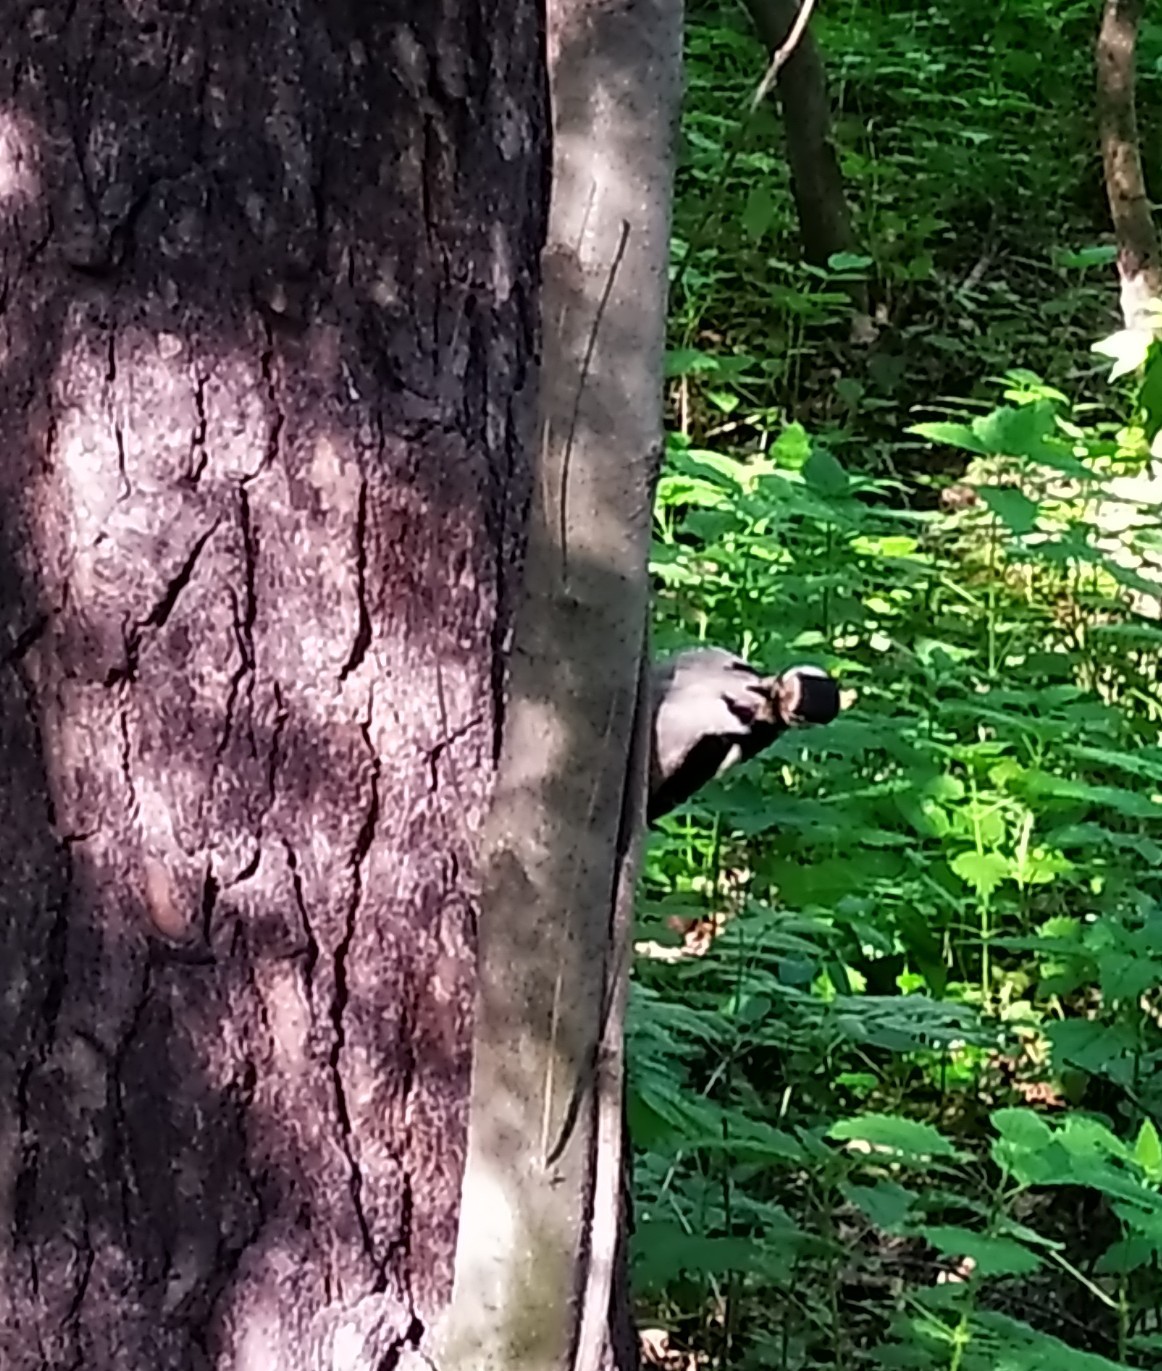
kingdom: Animalia
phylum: Chordata
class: Aves
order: Piciformes
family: Picidae
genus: Dendrocopos
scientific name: Dendrocopos major
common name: Great spotted woodpecker
